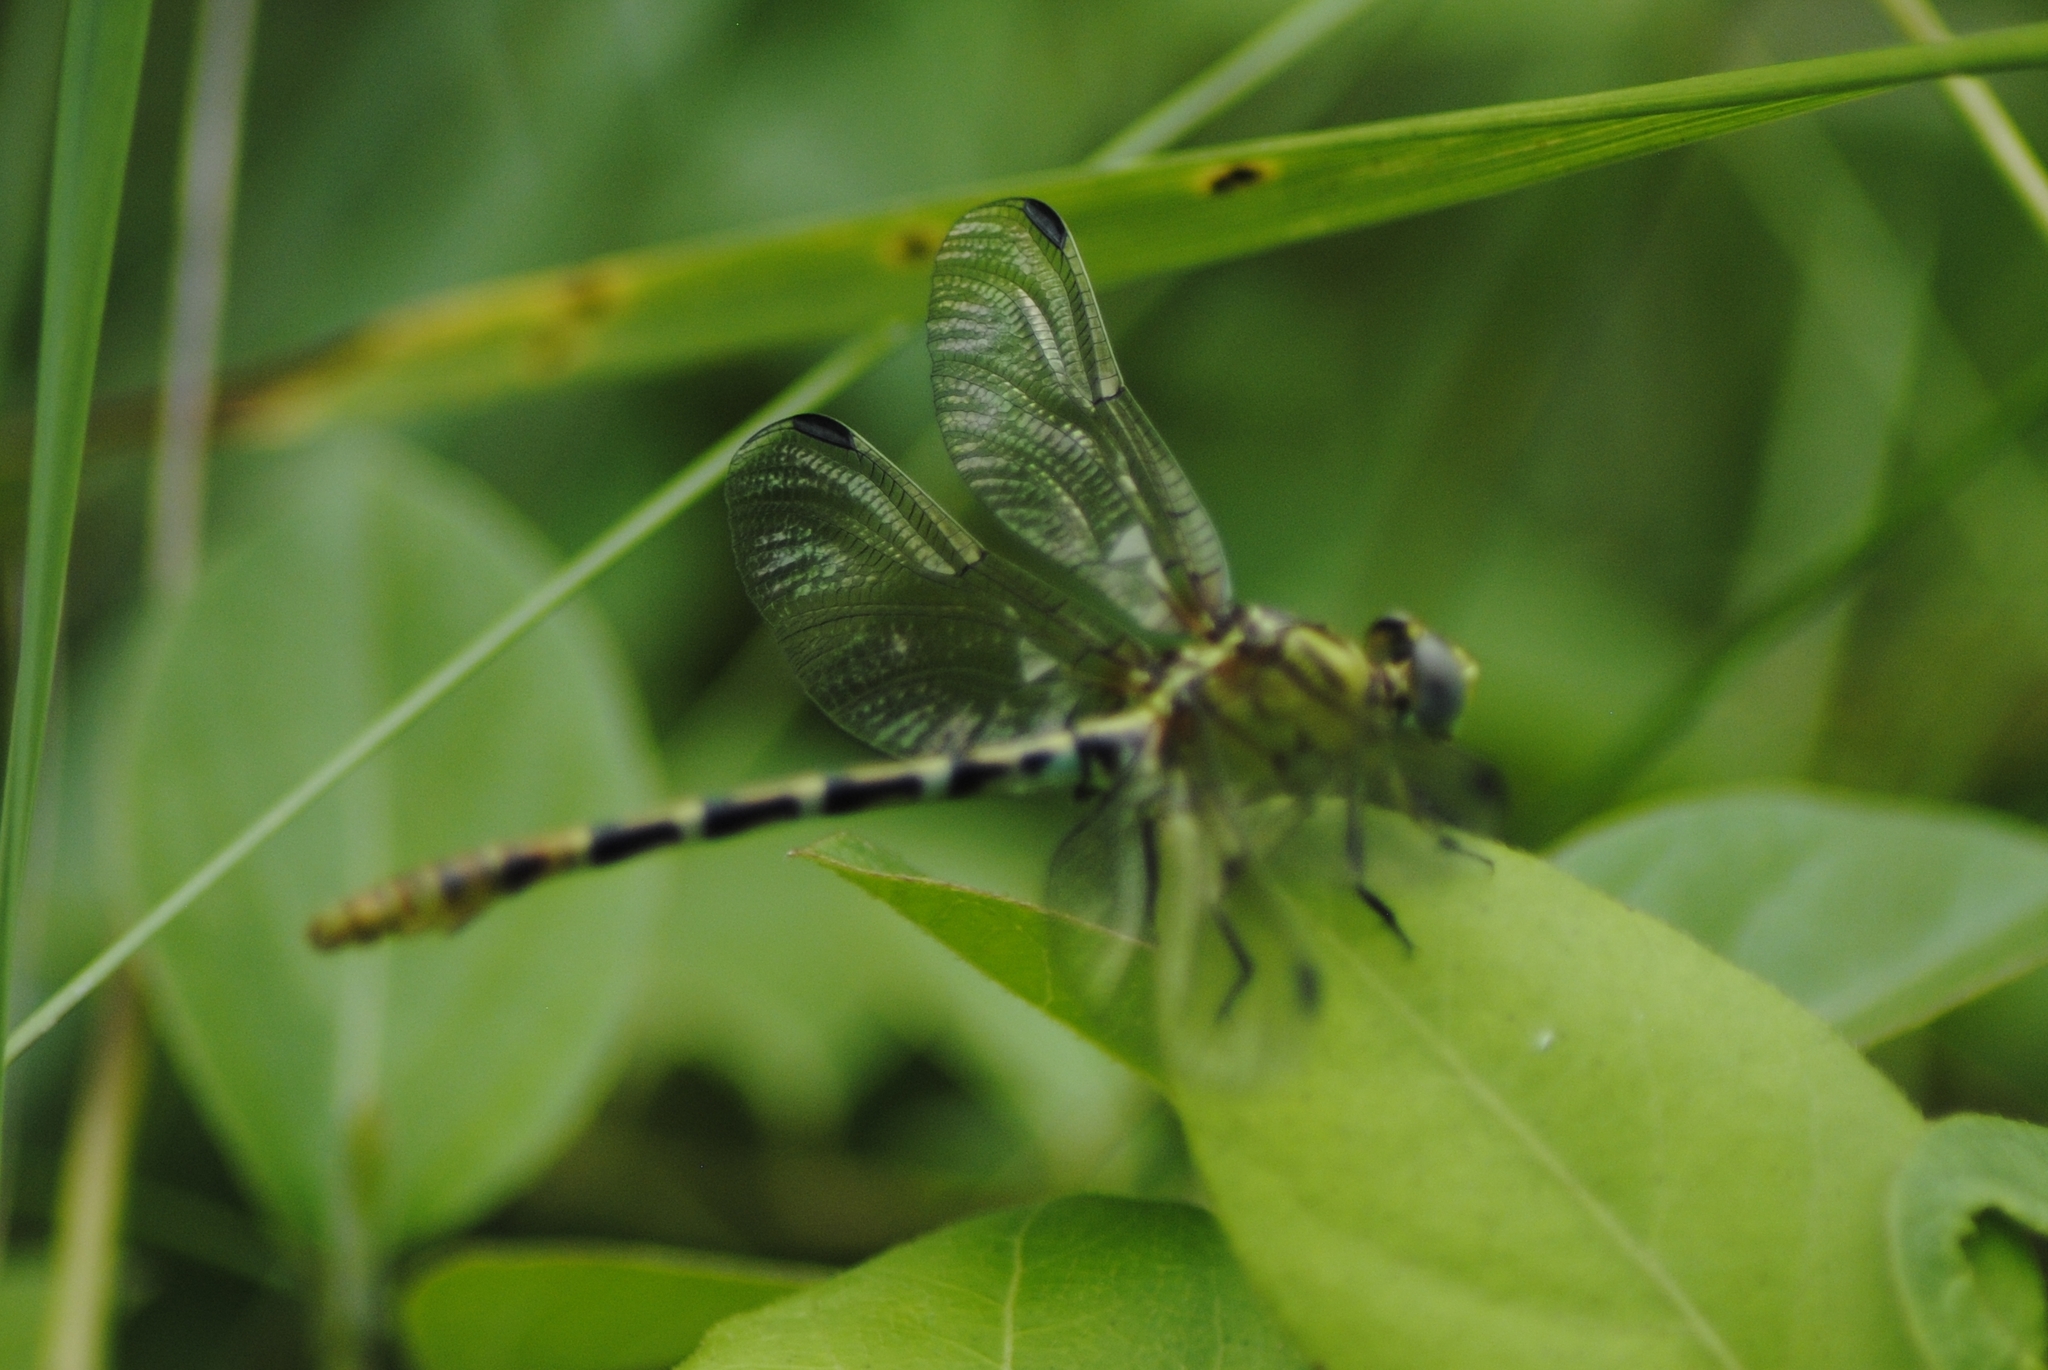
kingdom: Animalia
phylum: Arthropoda
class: Insecta
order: Odonata
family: Gomphidae
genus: Erpetogomphus
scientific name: Erpetogomphus designatus
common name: Eastern ringtail
